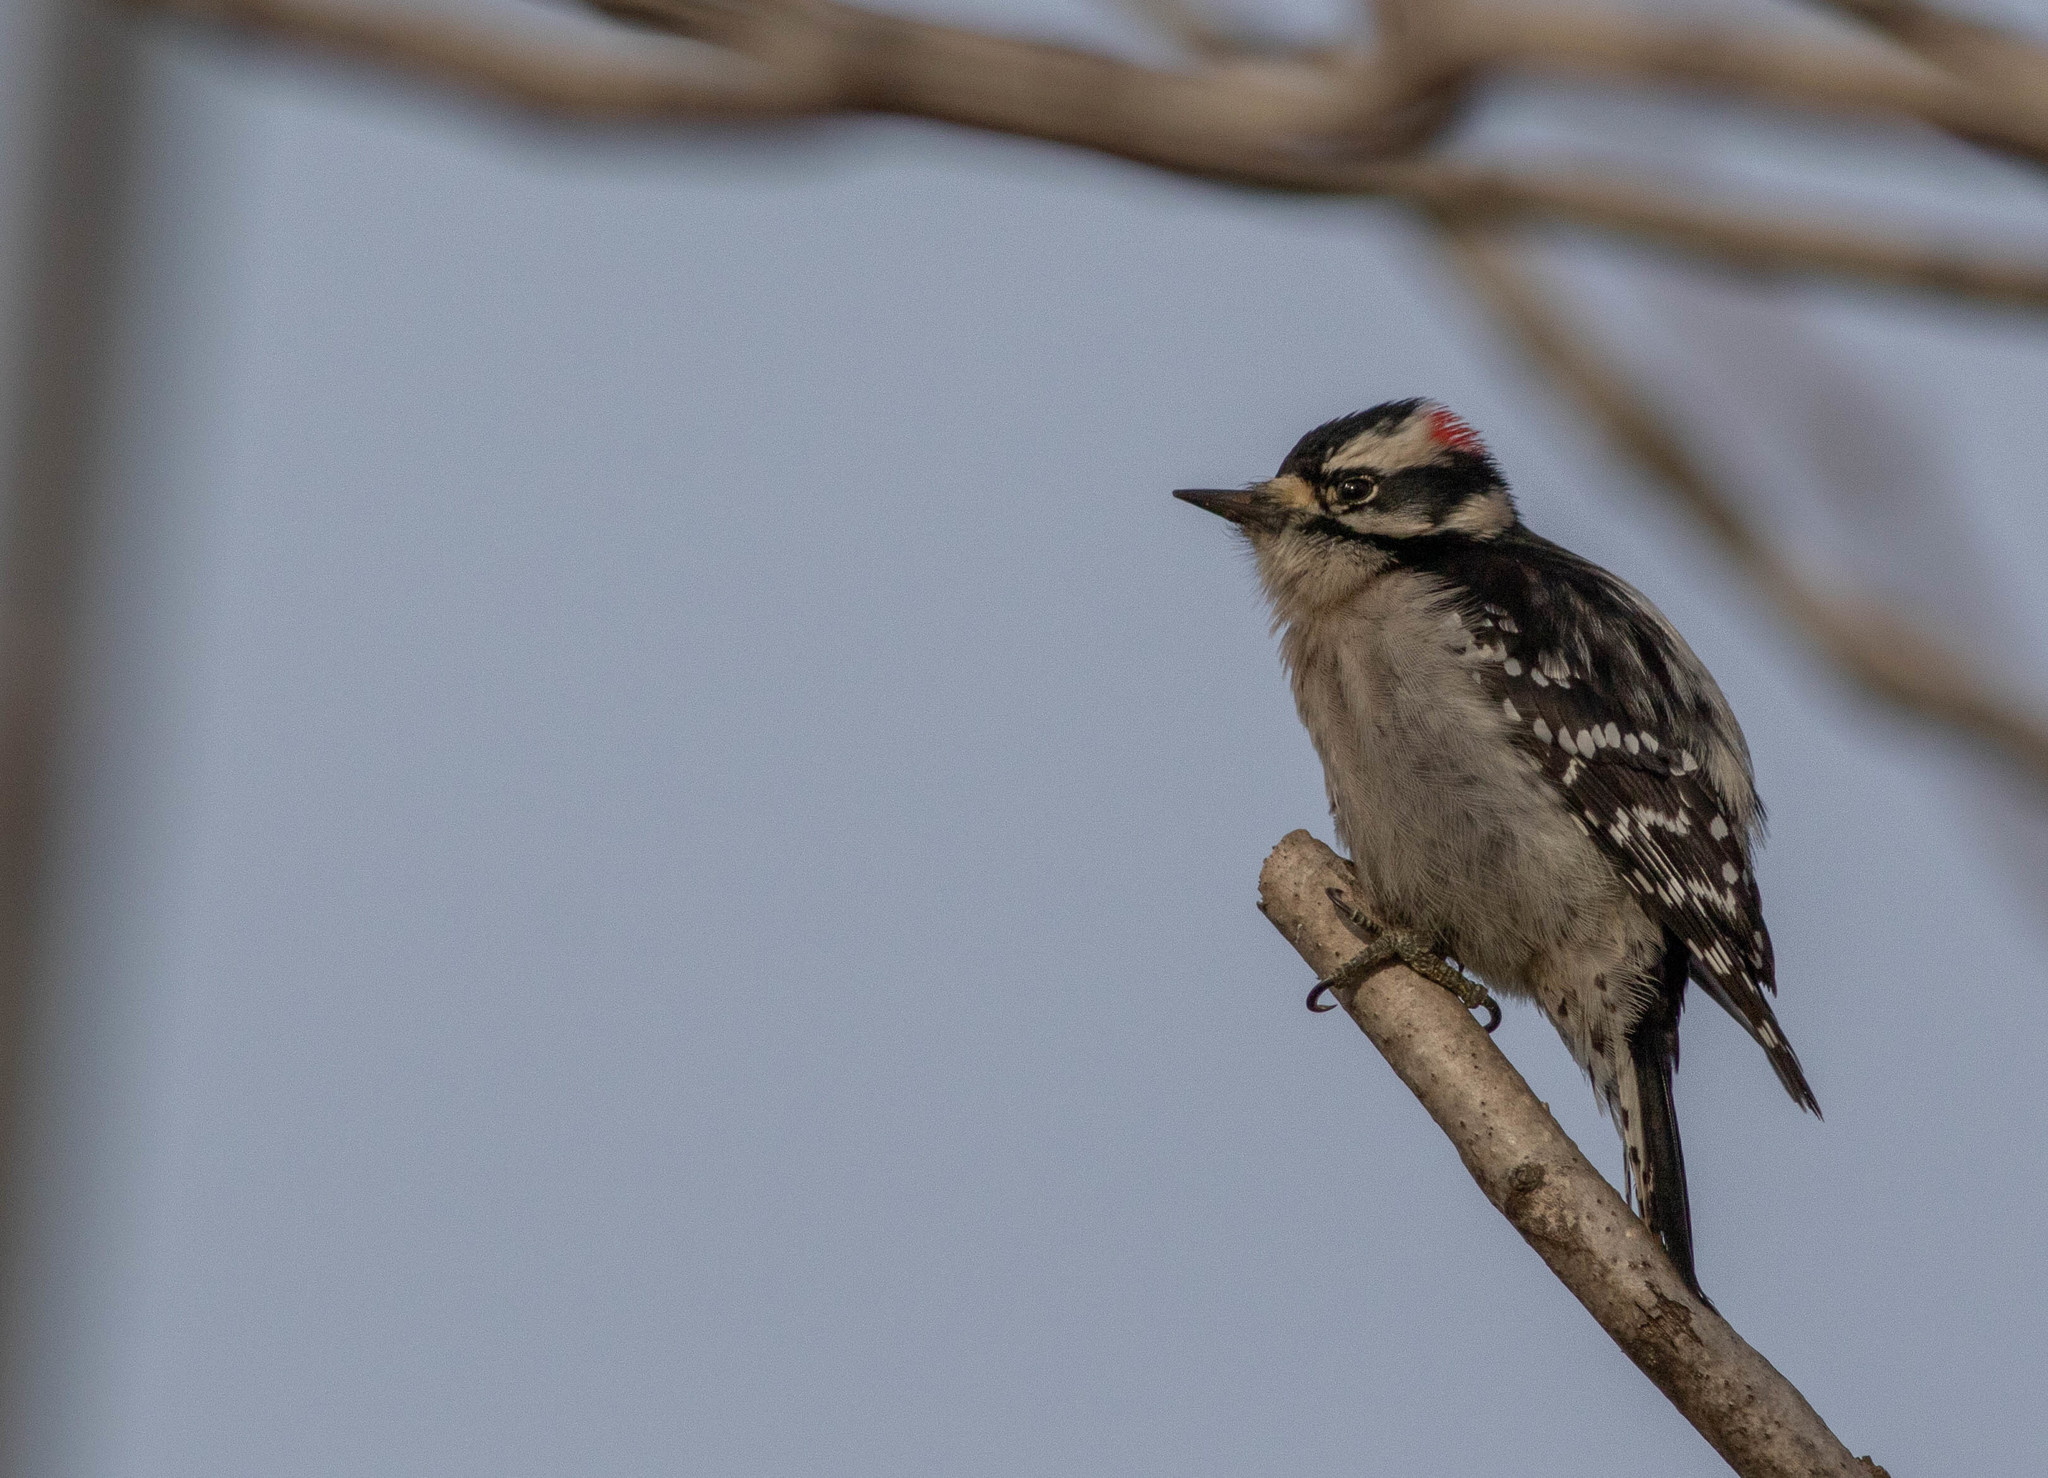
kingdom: Animalia
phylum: Chordata
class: Aves
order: Piciformes
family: Picidae
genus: Dryobates
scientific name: Dryobates pubescens
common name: Downy woodpecker
